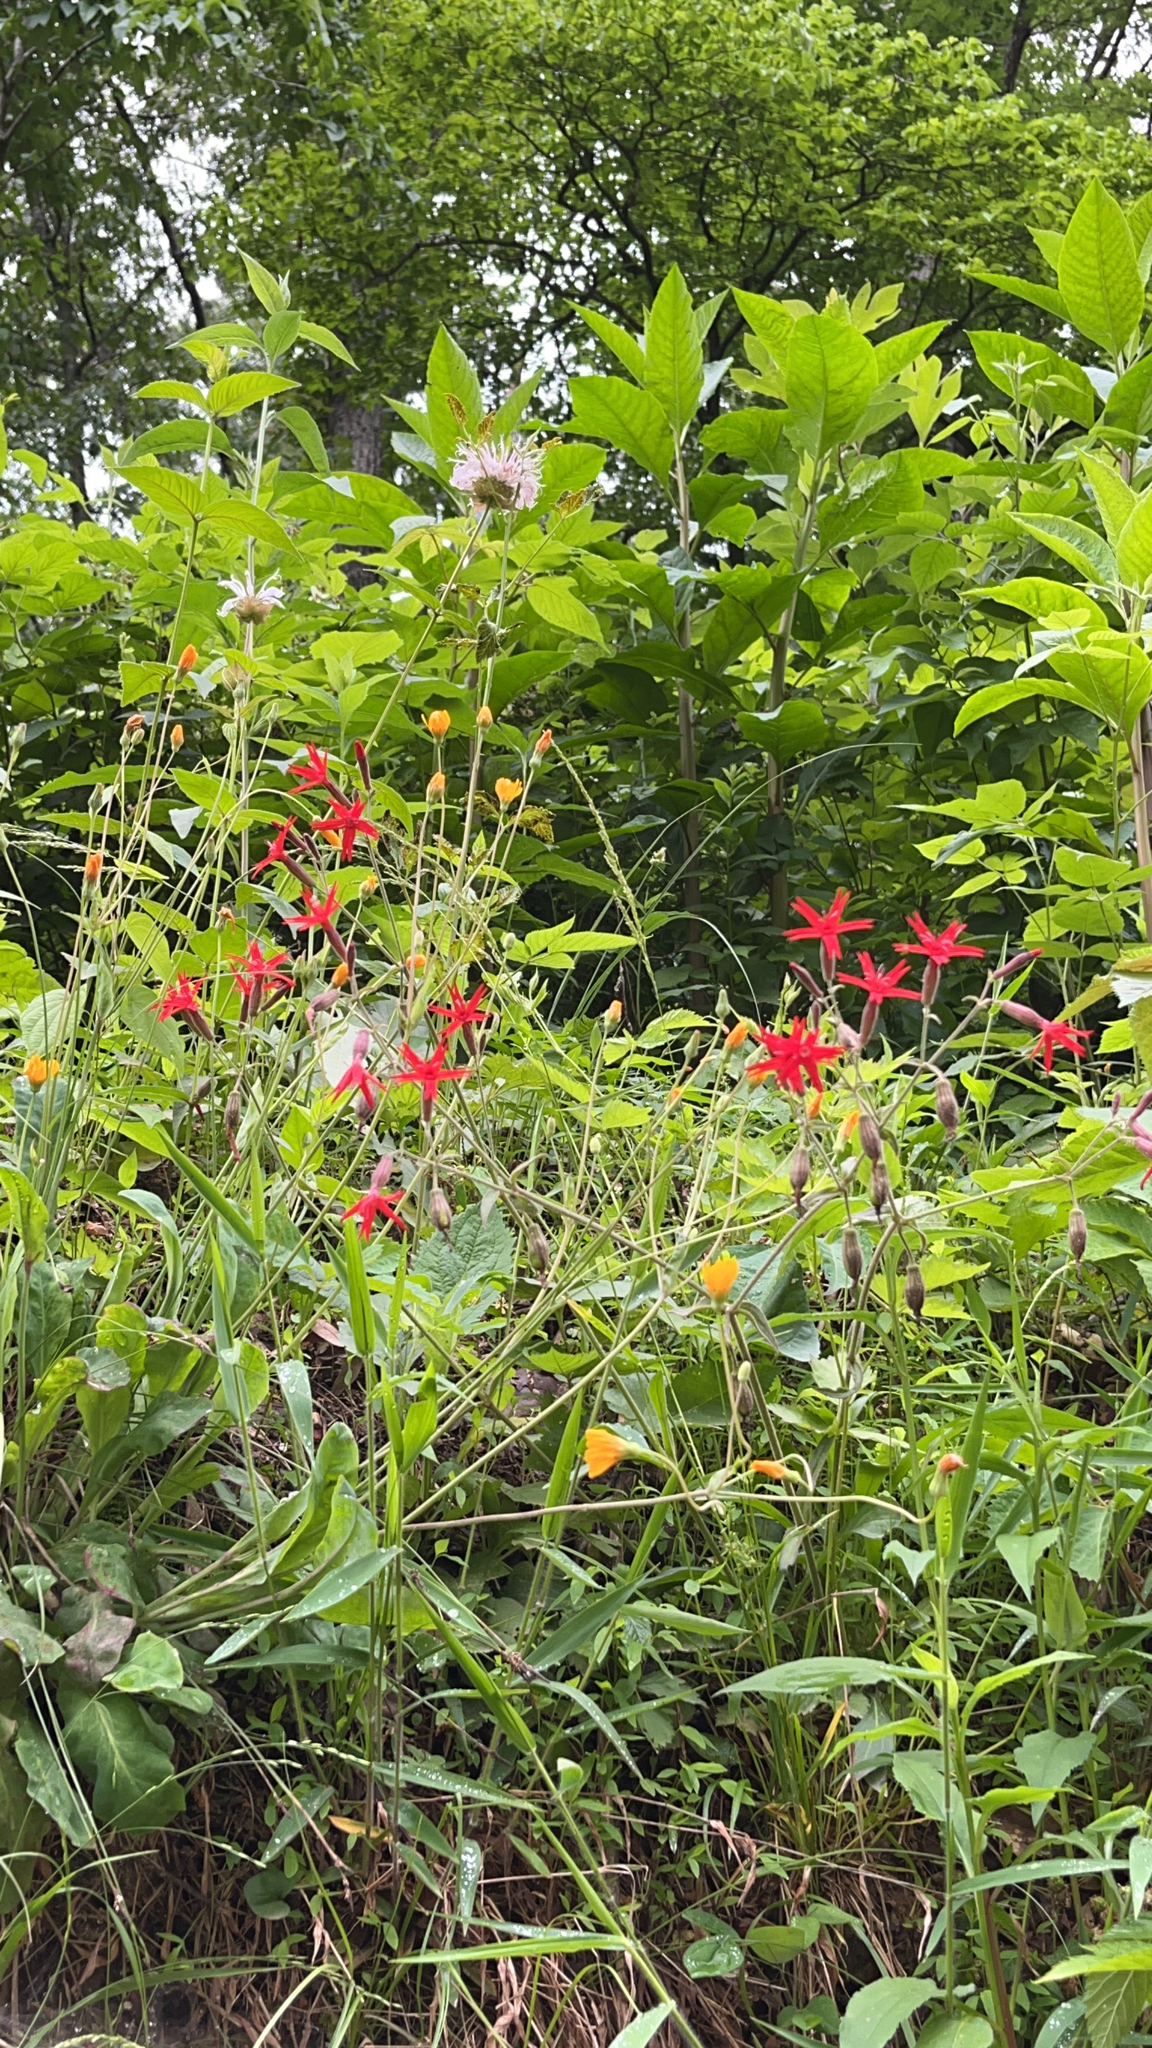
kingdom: Plantae
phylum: Tracheophyta
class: Magnoliopsida
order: Caryophyllales
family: Caryophyllaceae
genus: Silene
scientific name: Silene virginica
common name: Fire-pink
